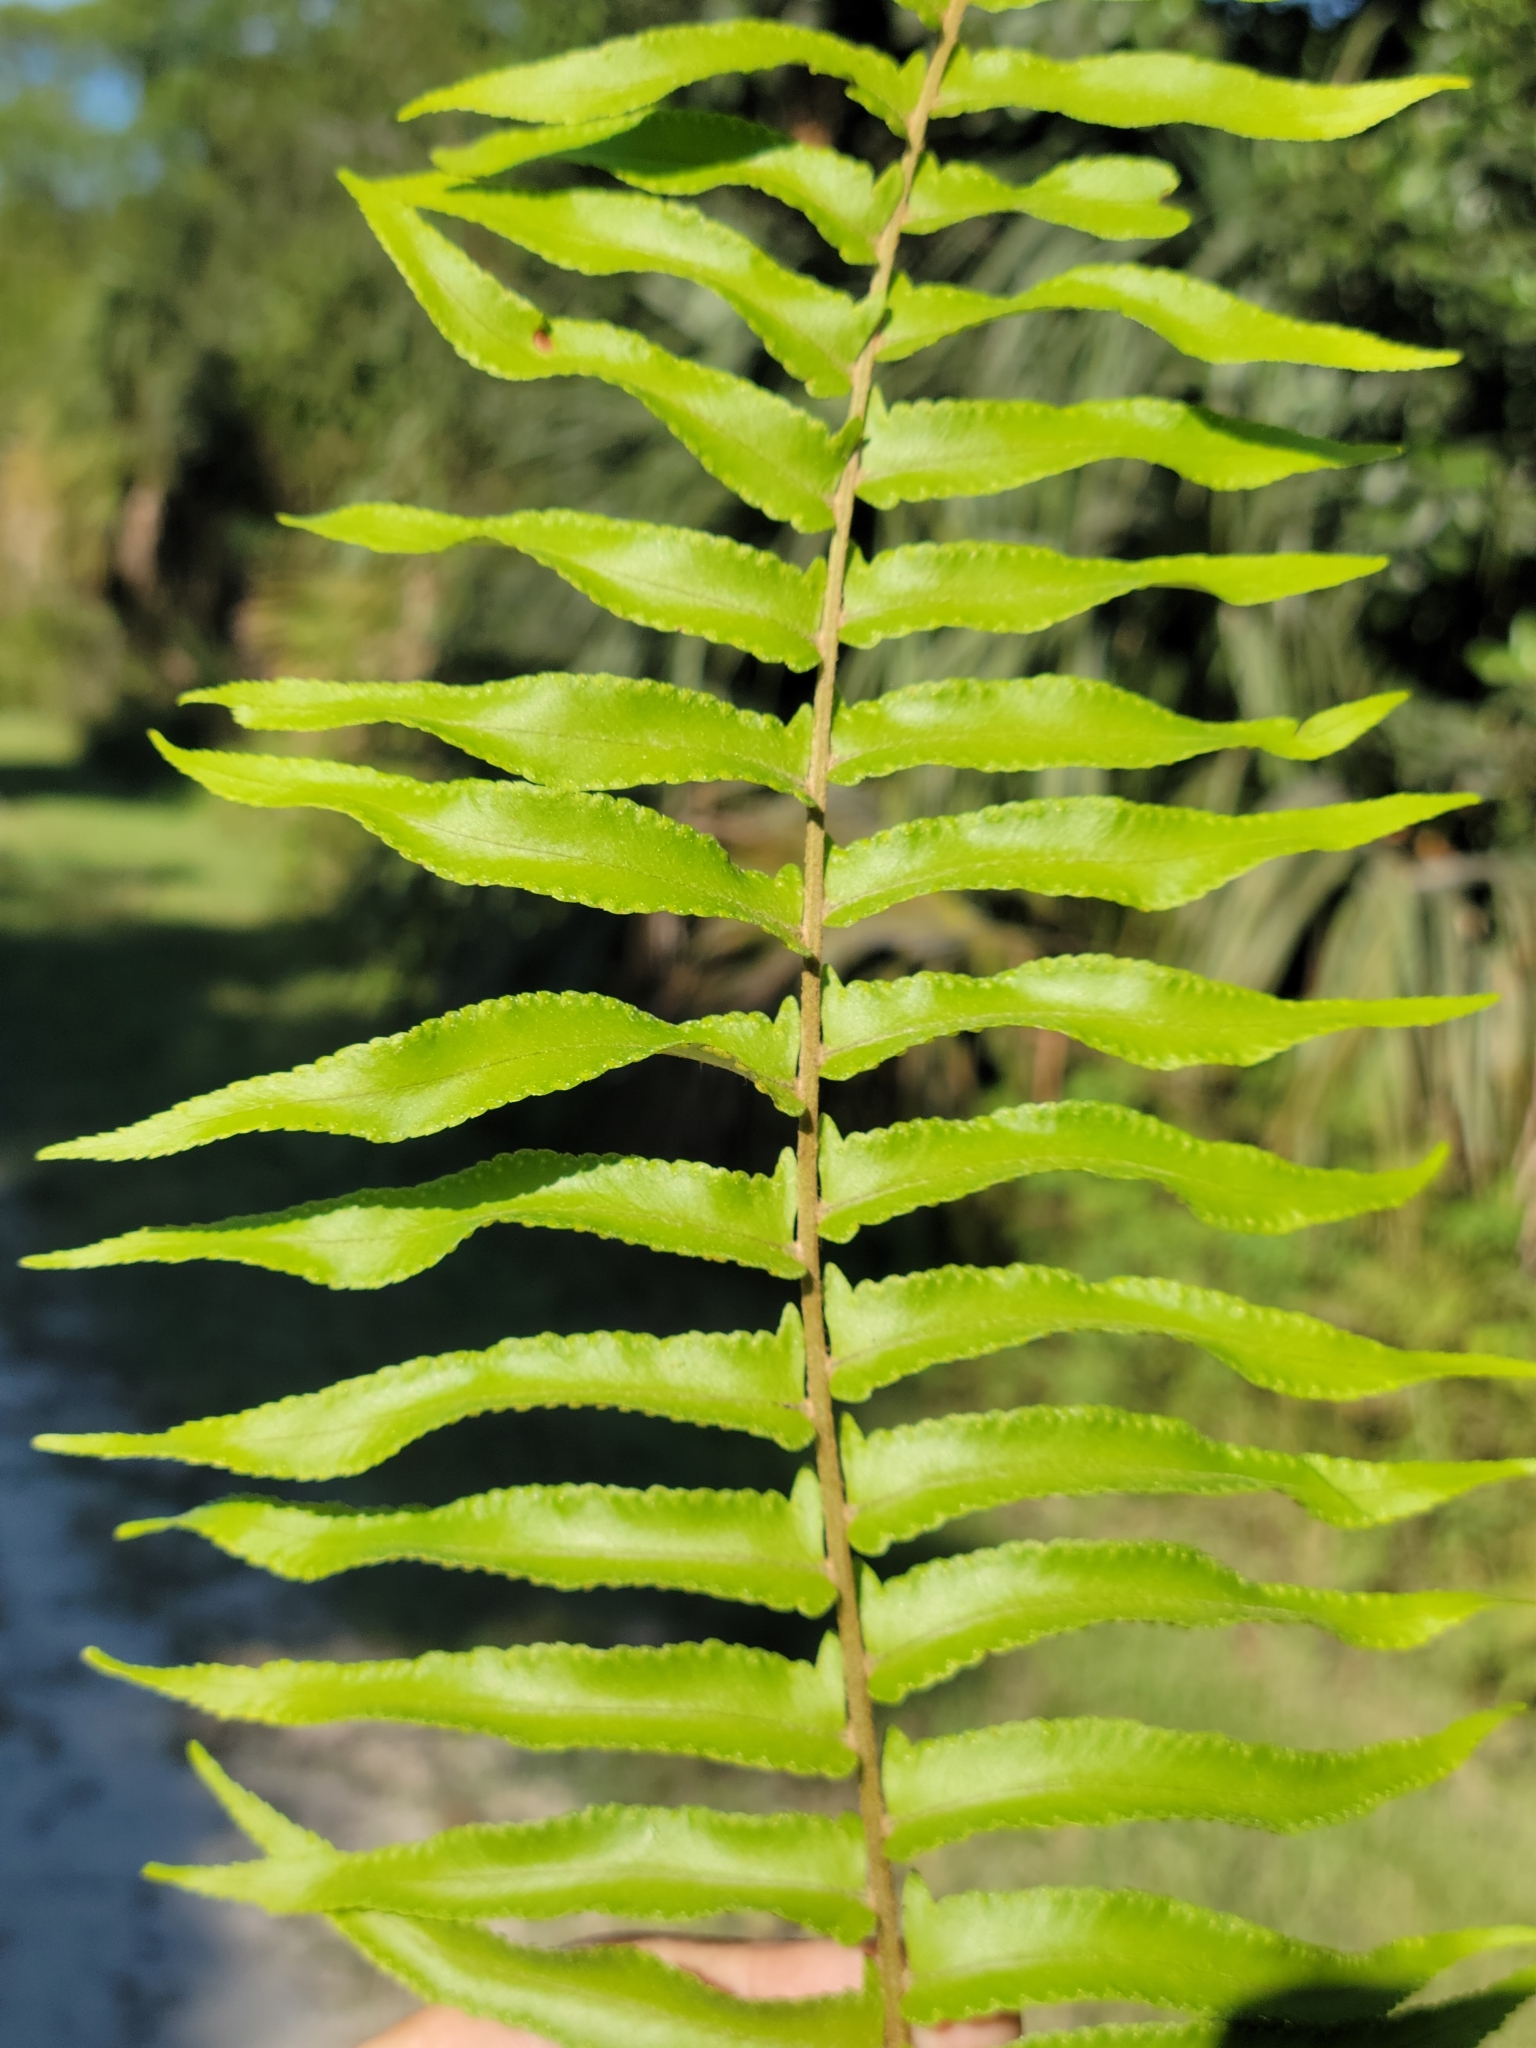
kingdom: Plantae
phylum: Tracheophyta
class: Polypodiopsida
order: Polypodiales
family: Nephrolepidaceae
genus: Nephrolepis
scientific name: Nephrolepis brownii
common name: Asian swordfern
